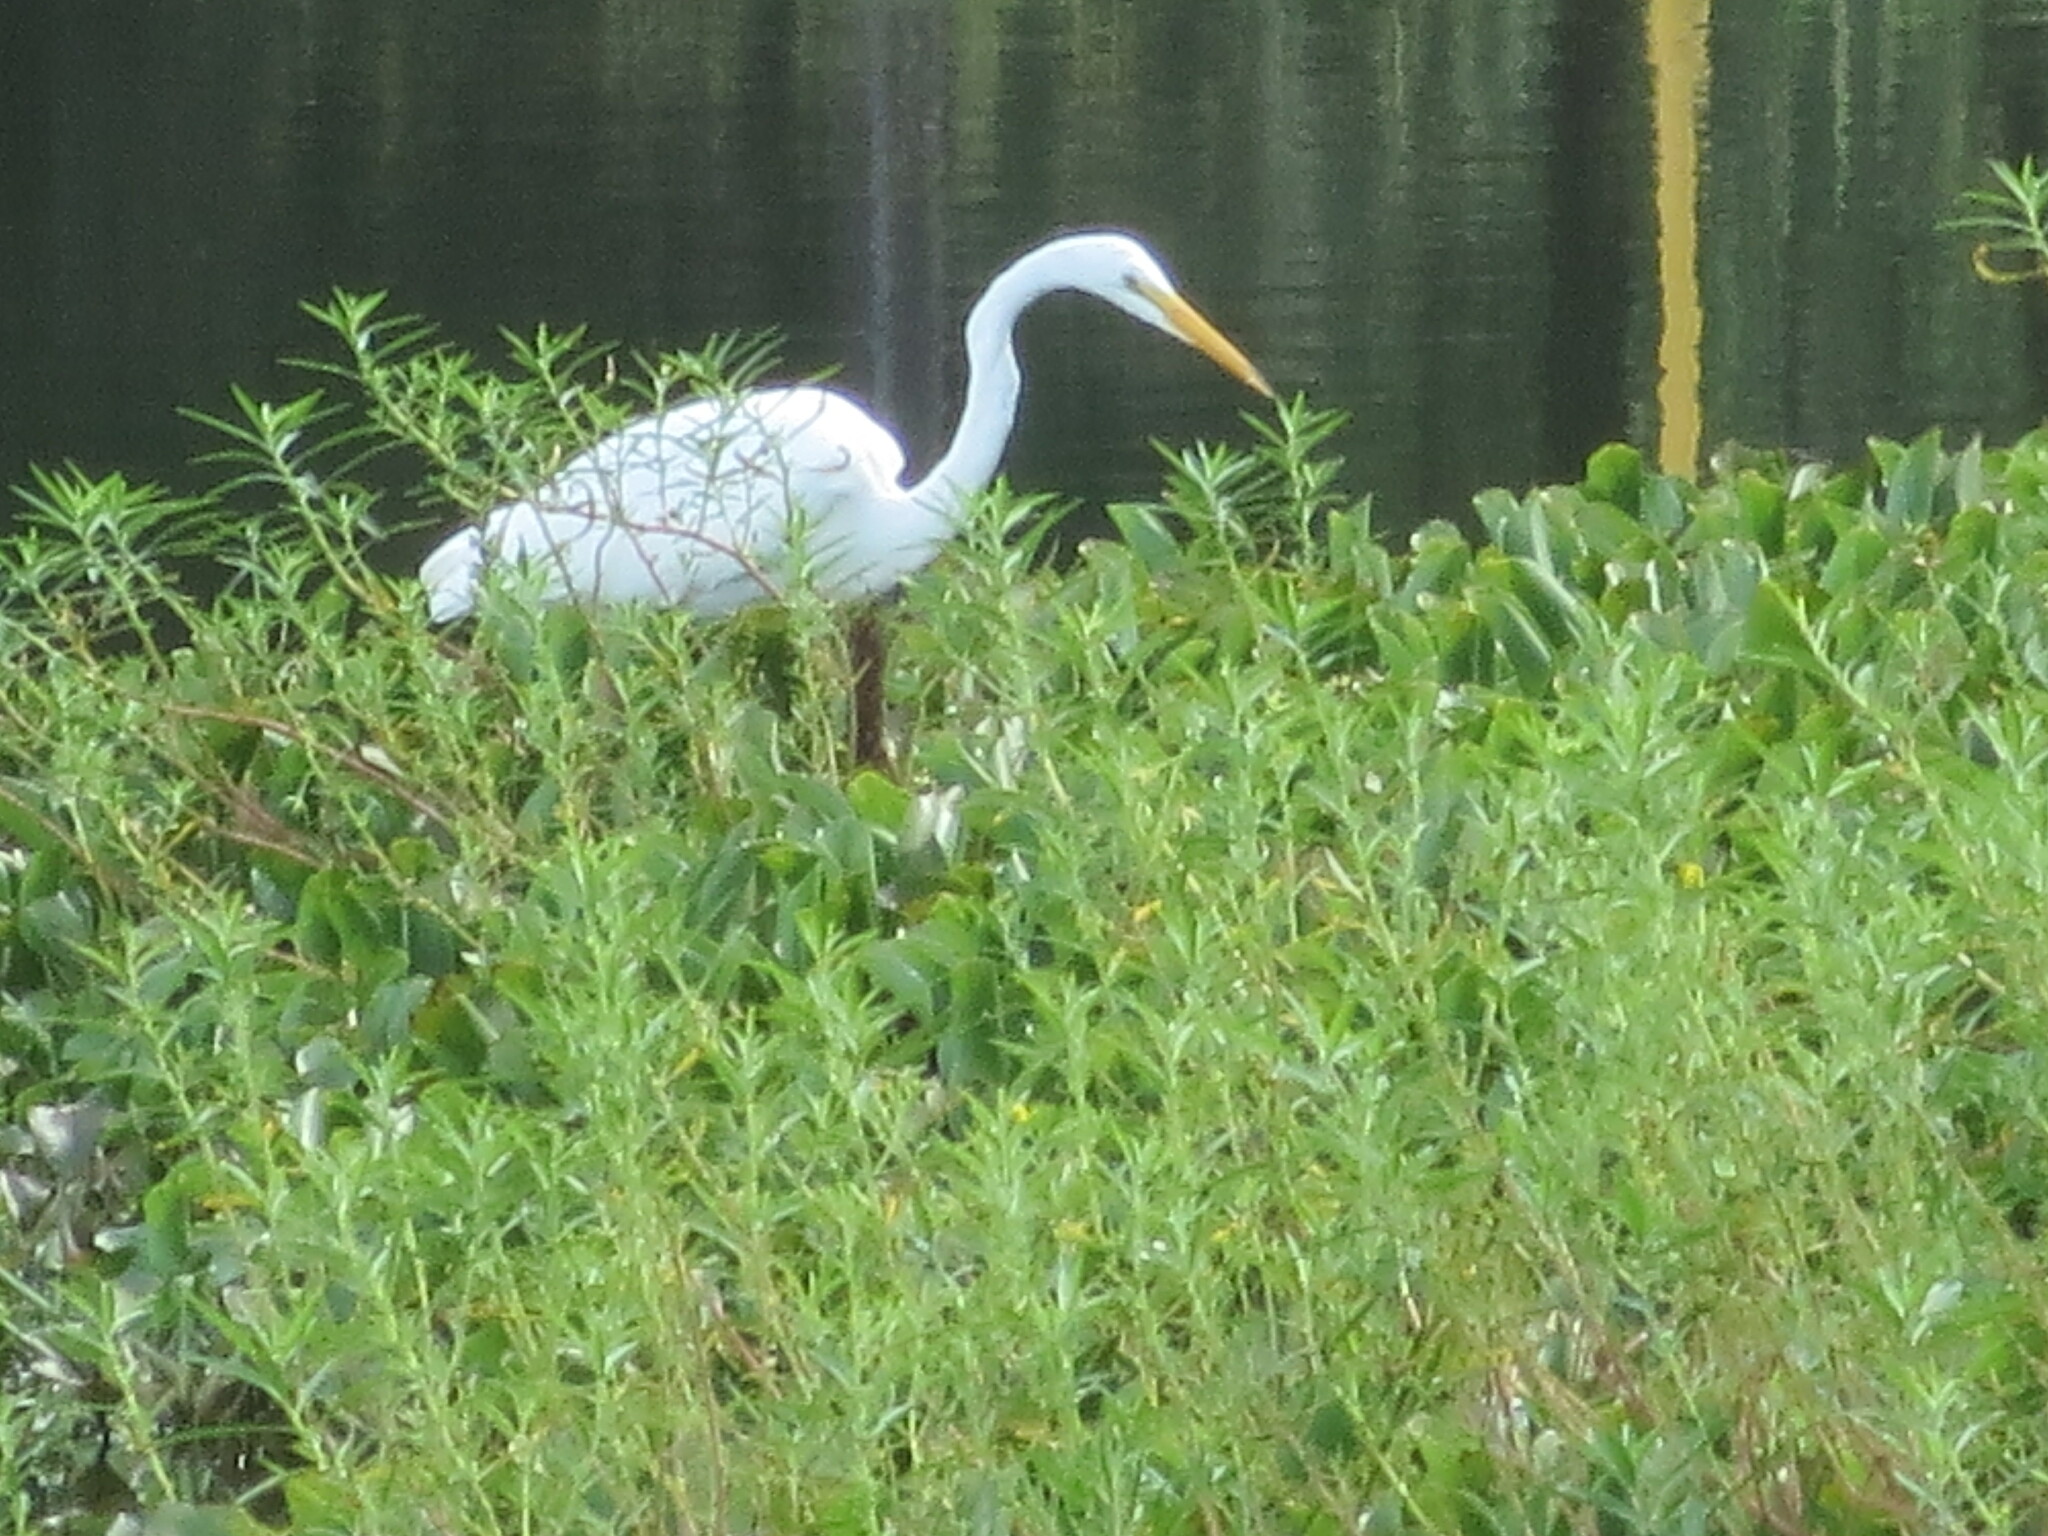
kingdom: Animalia
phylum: Chordata
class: Aves
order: Pelecaniformes
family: Ardeidae
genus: Ardea
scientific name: Ardea alba
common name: Great egret
